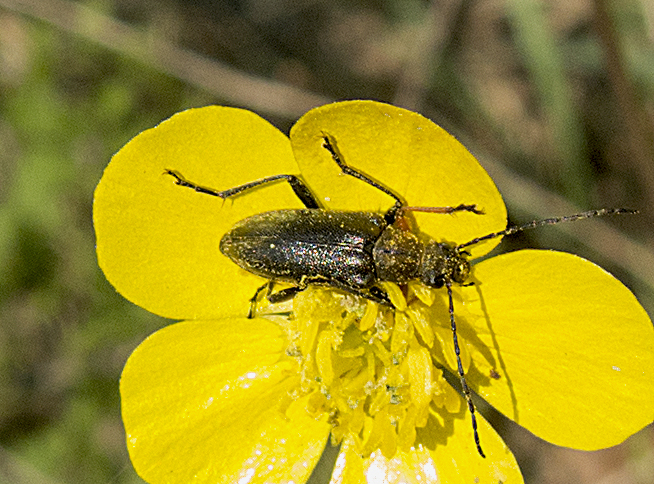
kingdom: Animalia
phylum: Arthropoda
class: Insecta
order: Coleoptera
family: Cerambycidae
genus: Cortodera
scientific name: Cortodera flavimana
